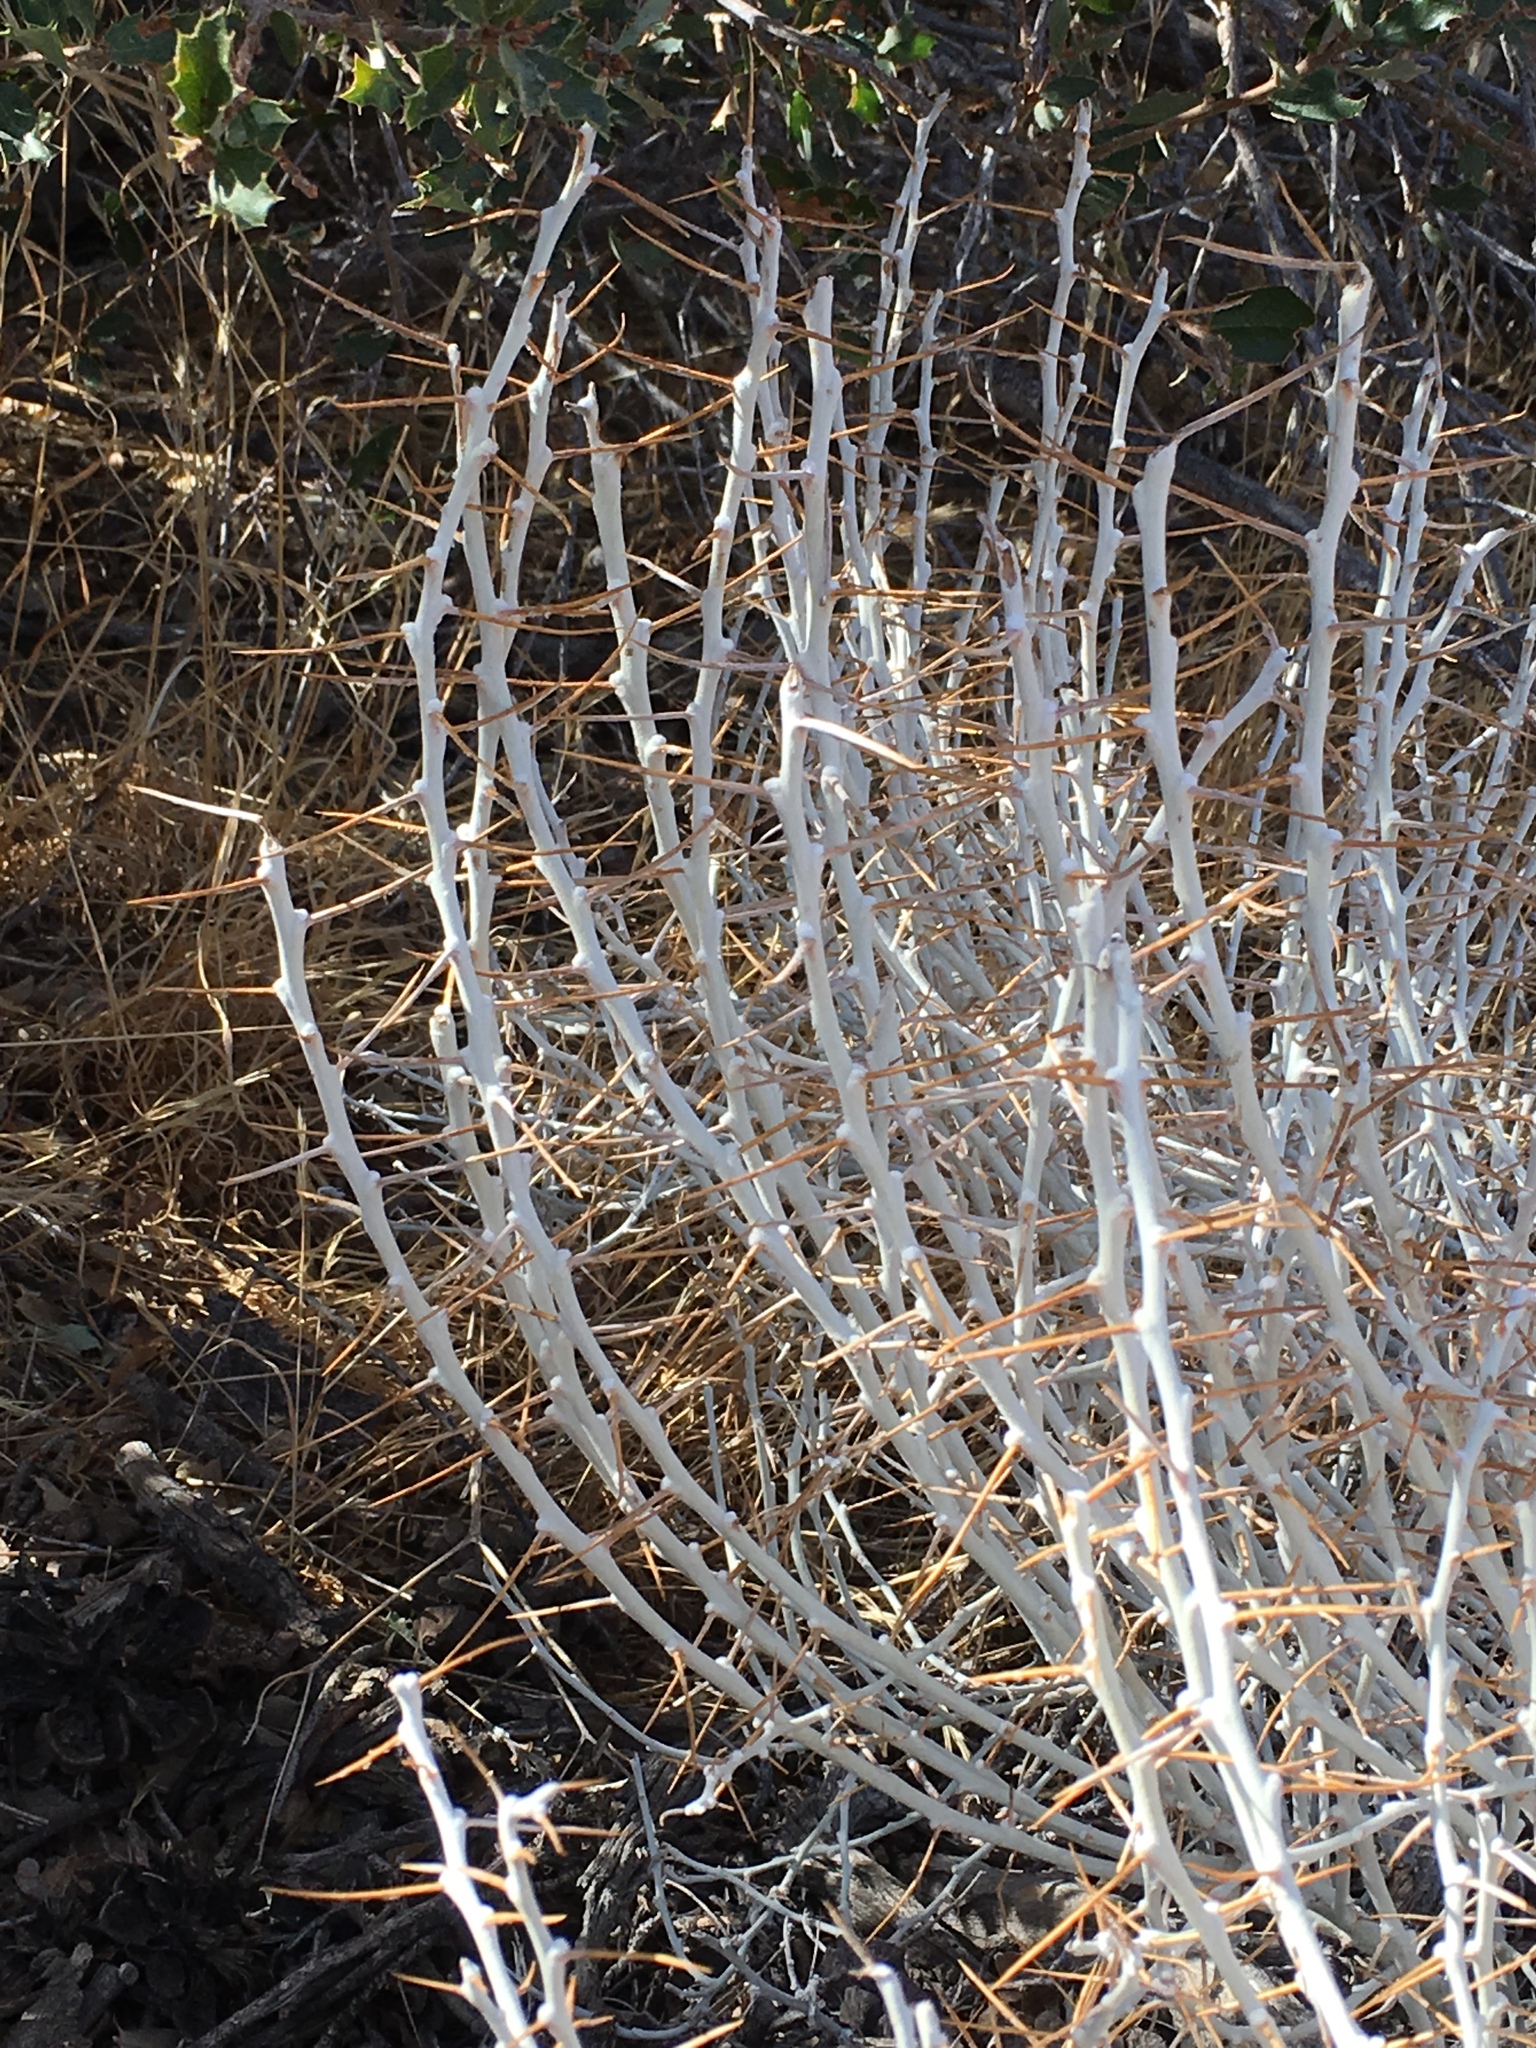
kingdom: Plantae
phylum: Tracheophyta
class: Magnoliopsida
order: Asterales
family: Asteraceae
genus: Tetradymia
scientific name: Tetradymia axillaris
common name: Long-spine horsebrush
